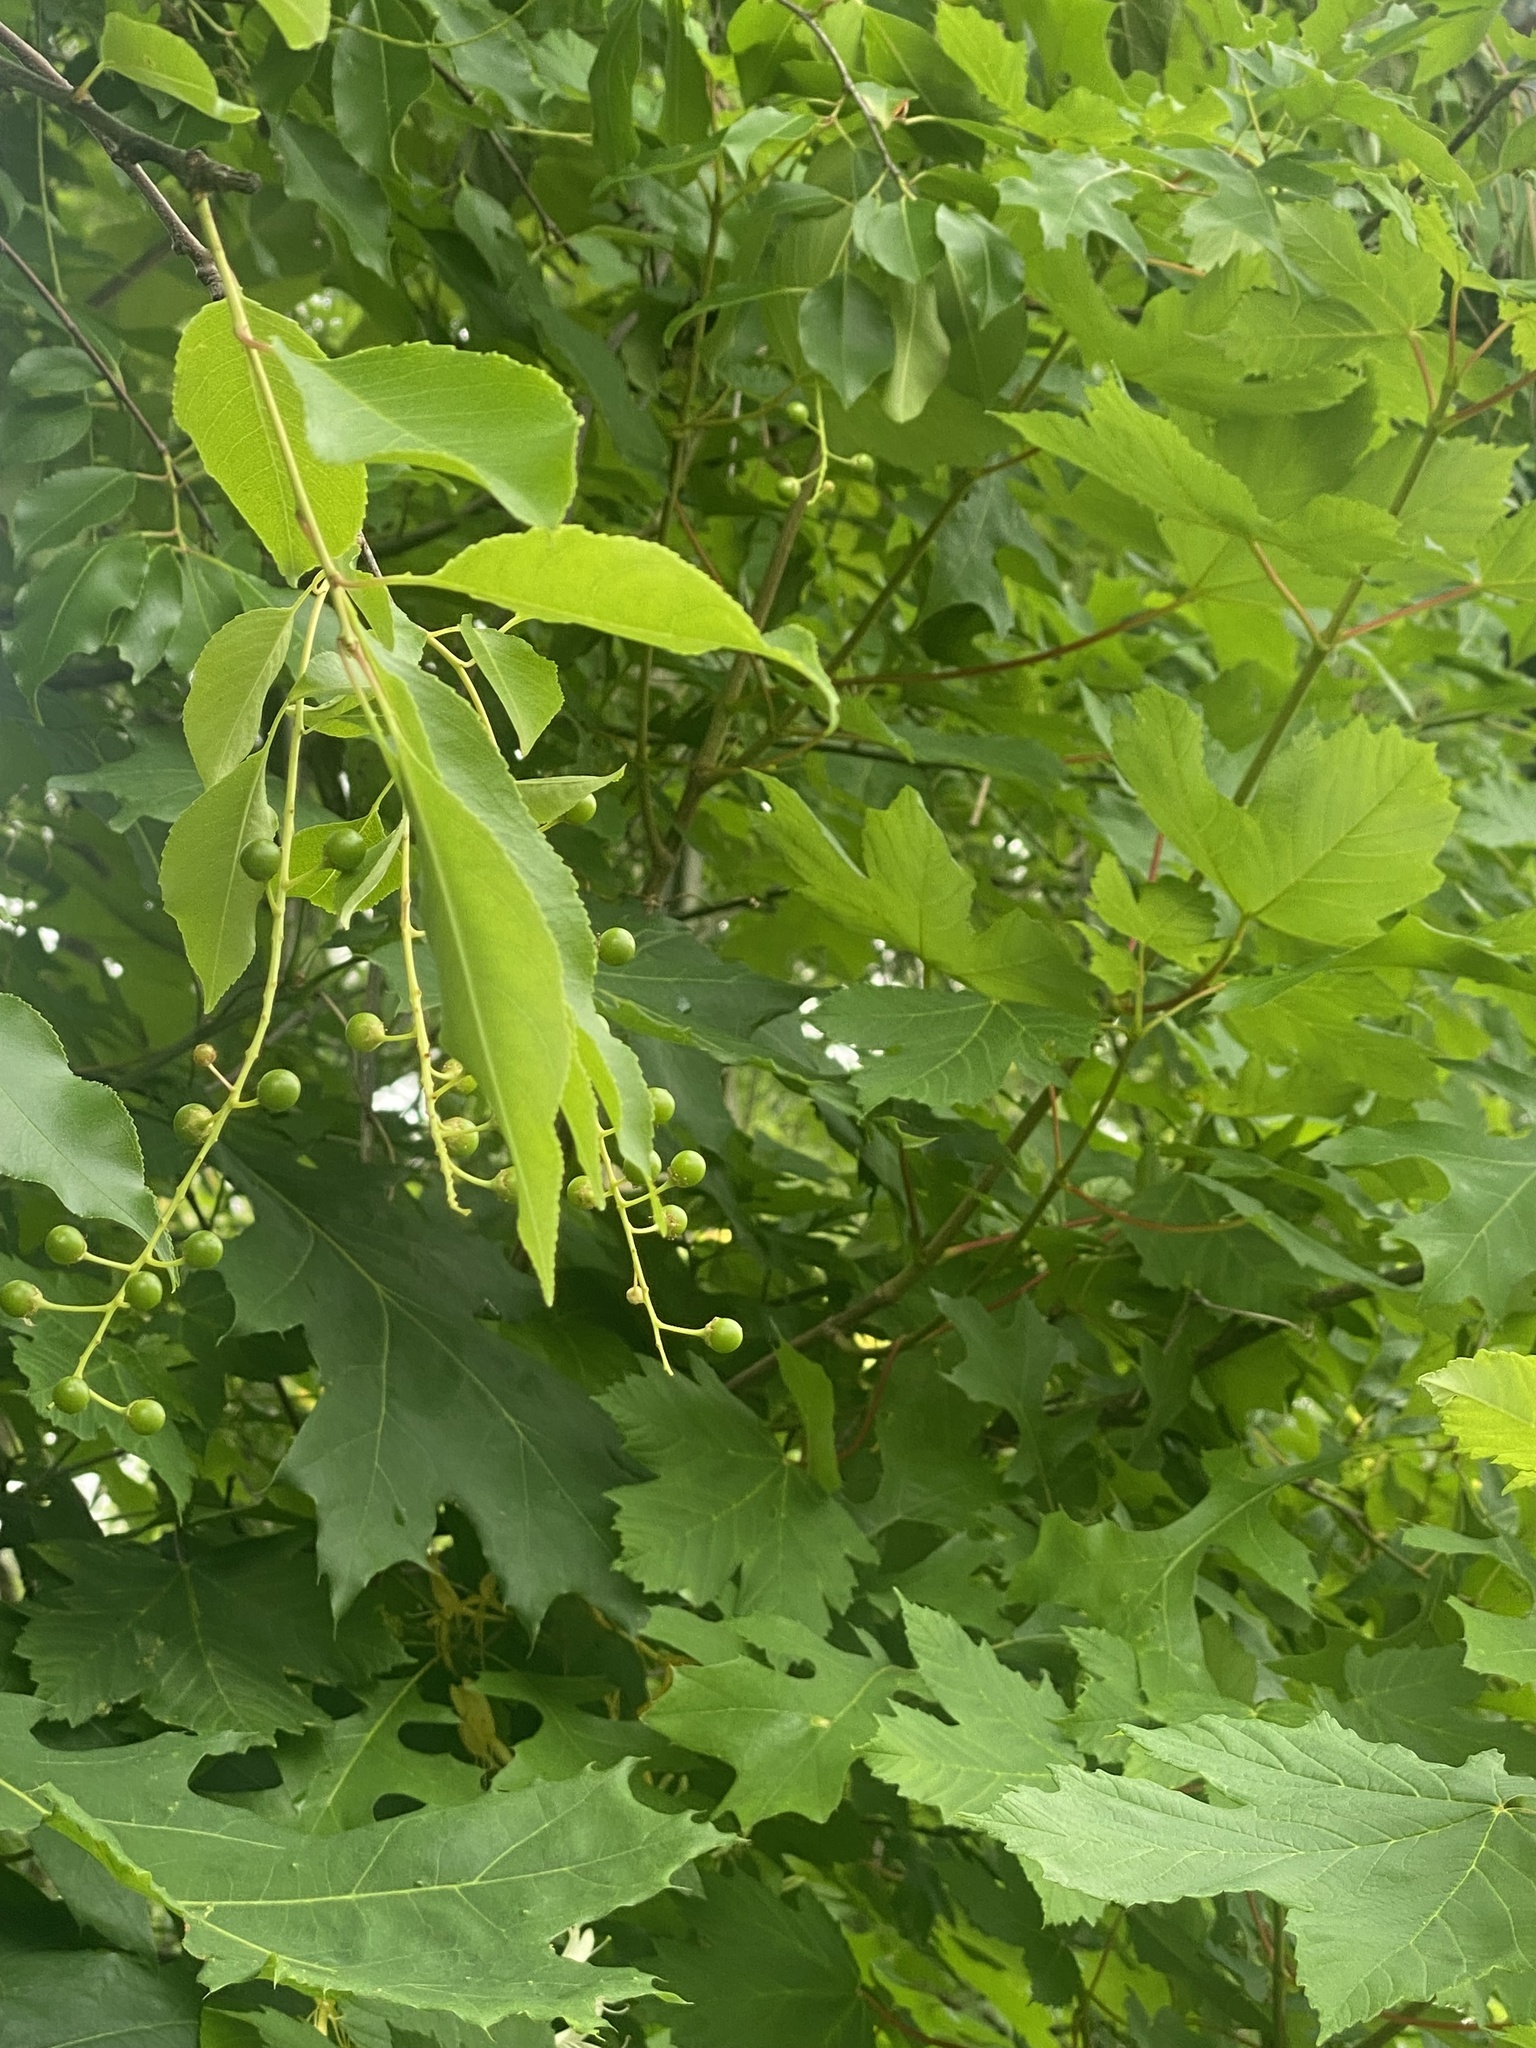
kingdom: Plantae
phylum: Tracheophyta
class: Magnoliopsida
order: Rosales
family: Rosaceae
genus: Prunus
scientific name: Prunus serotina
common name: Black cherry
